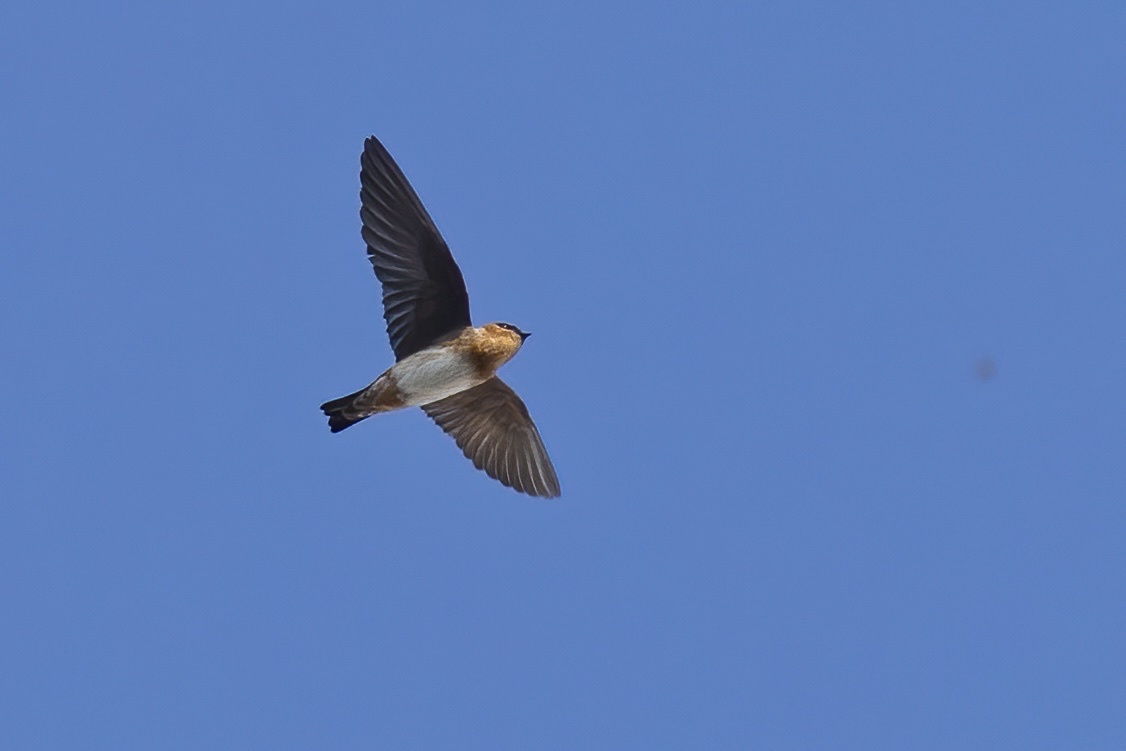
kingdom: Animalia
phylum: Chordata
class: Aves
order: Passeriformes
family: Hirundinidae
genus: Petrochelidon
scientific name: Petrochelidon fulva
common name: Cave swallow
